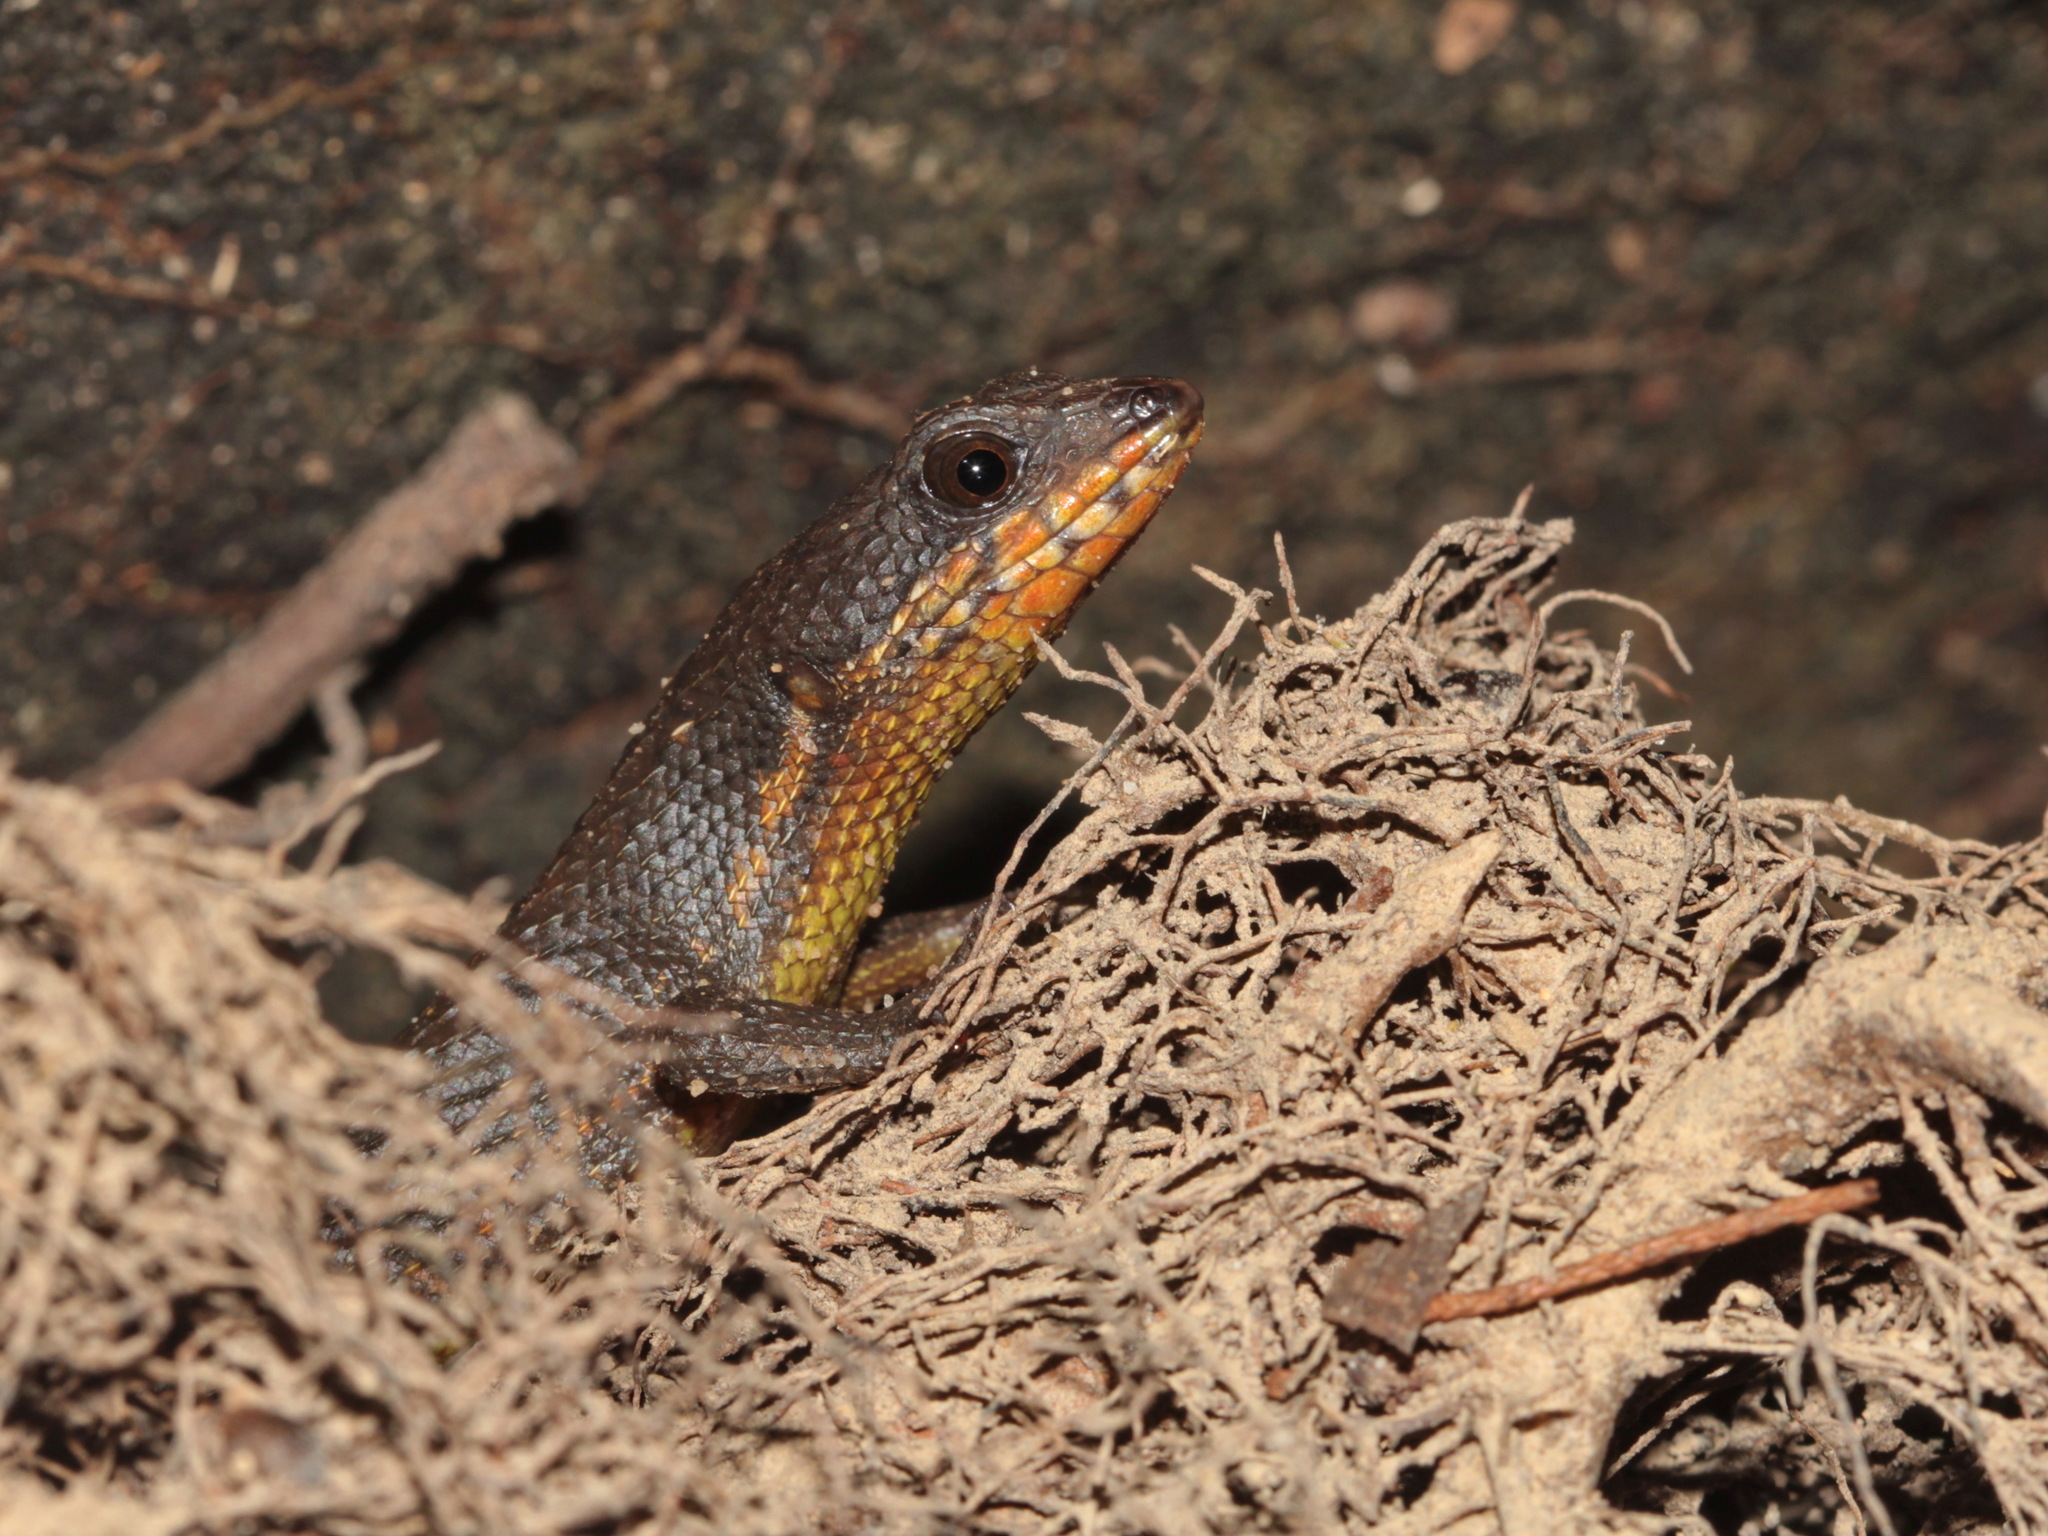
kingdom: Animalia
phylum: Chordata
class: Squamata
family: Scincidae
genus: Tropidophorus
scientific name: Tropidophorus cocincinensis
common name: Cochinchinese water skink
